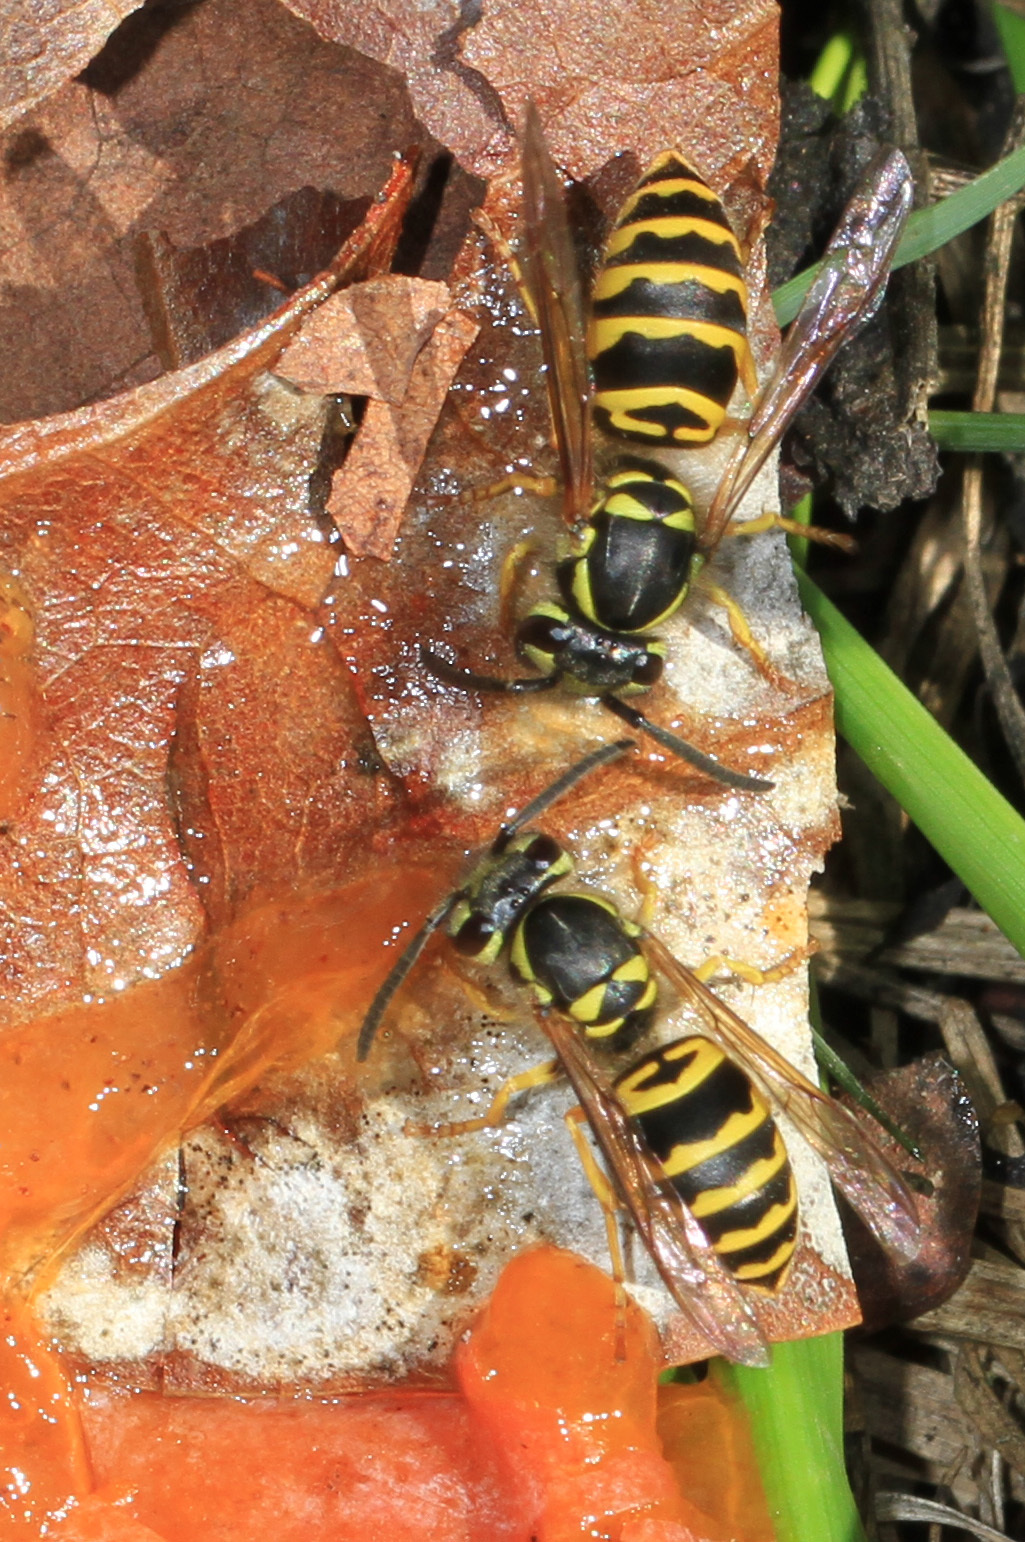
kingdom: Animalia
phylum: Arthropoda
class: Insecta
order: Hymenoptera
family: Vespidae
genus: Vespula
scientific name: Vespula maculifrons
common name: Eastern yellowjacket
